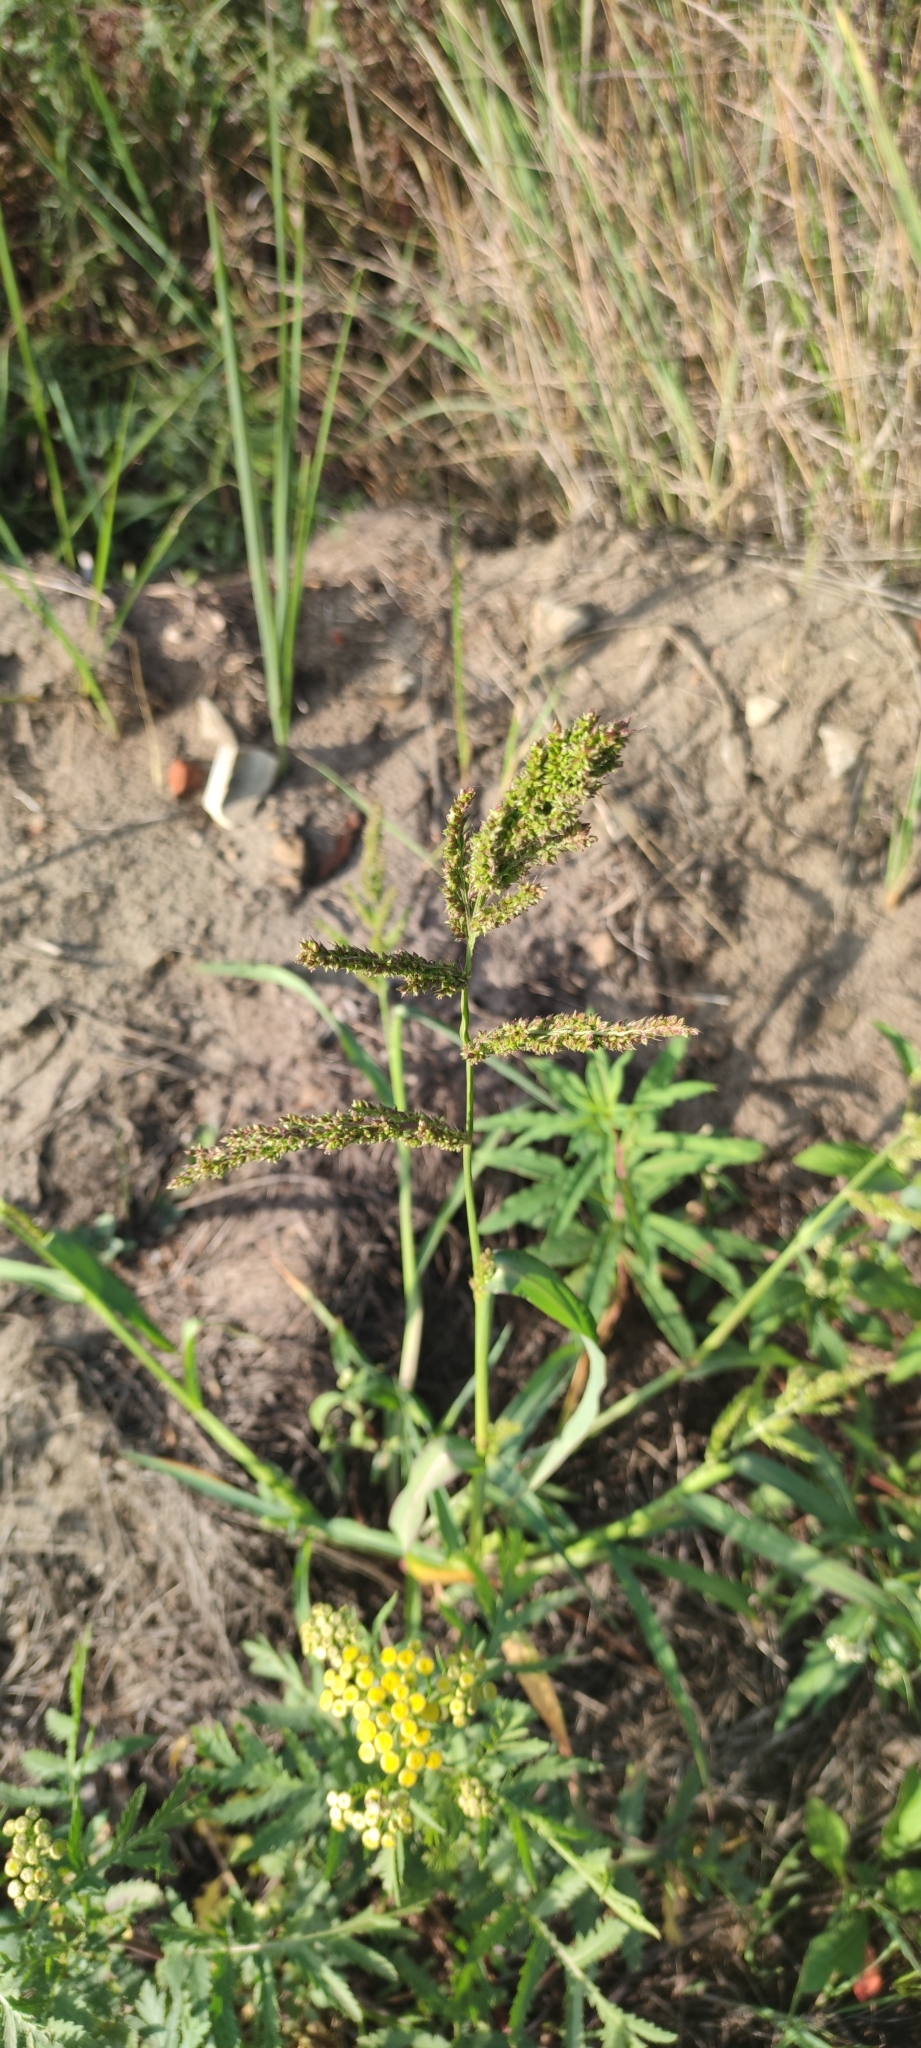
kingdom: Plantae
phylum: Tracheophyta
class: Liliopsida
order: Poales
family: Poaceae
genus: Echinochloa
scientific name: Echinochloa crus-galli
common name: Cockspur
